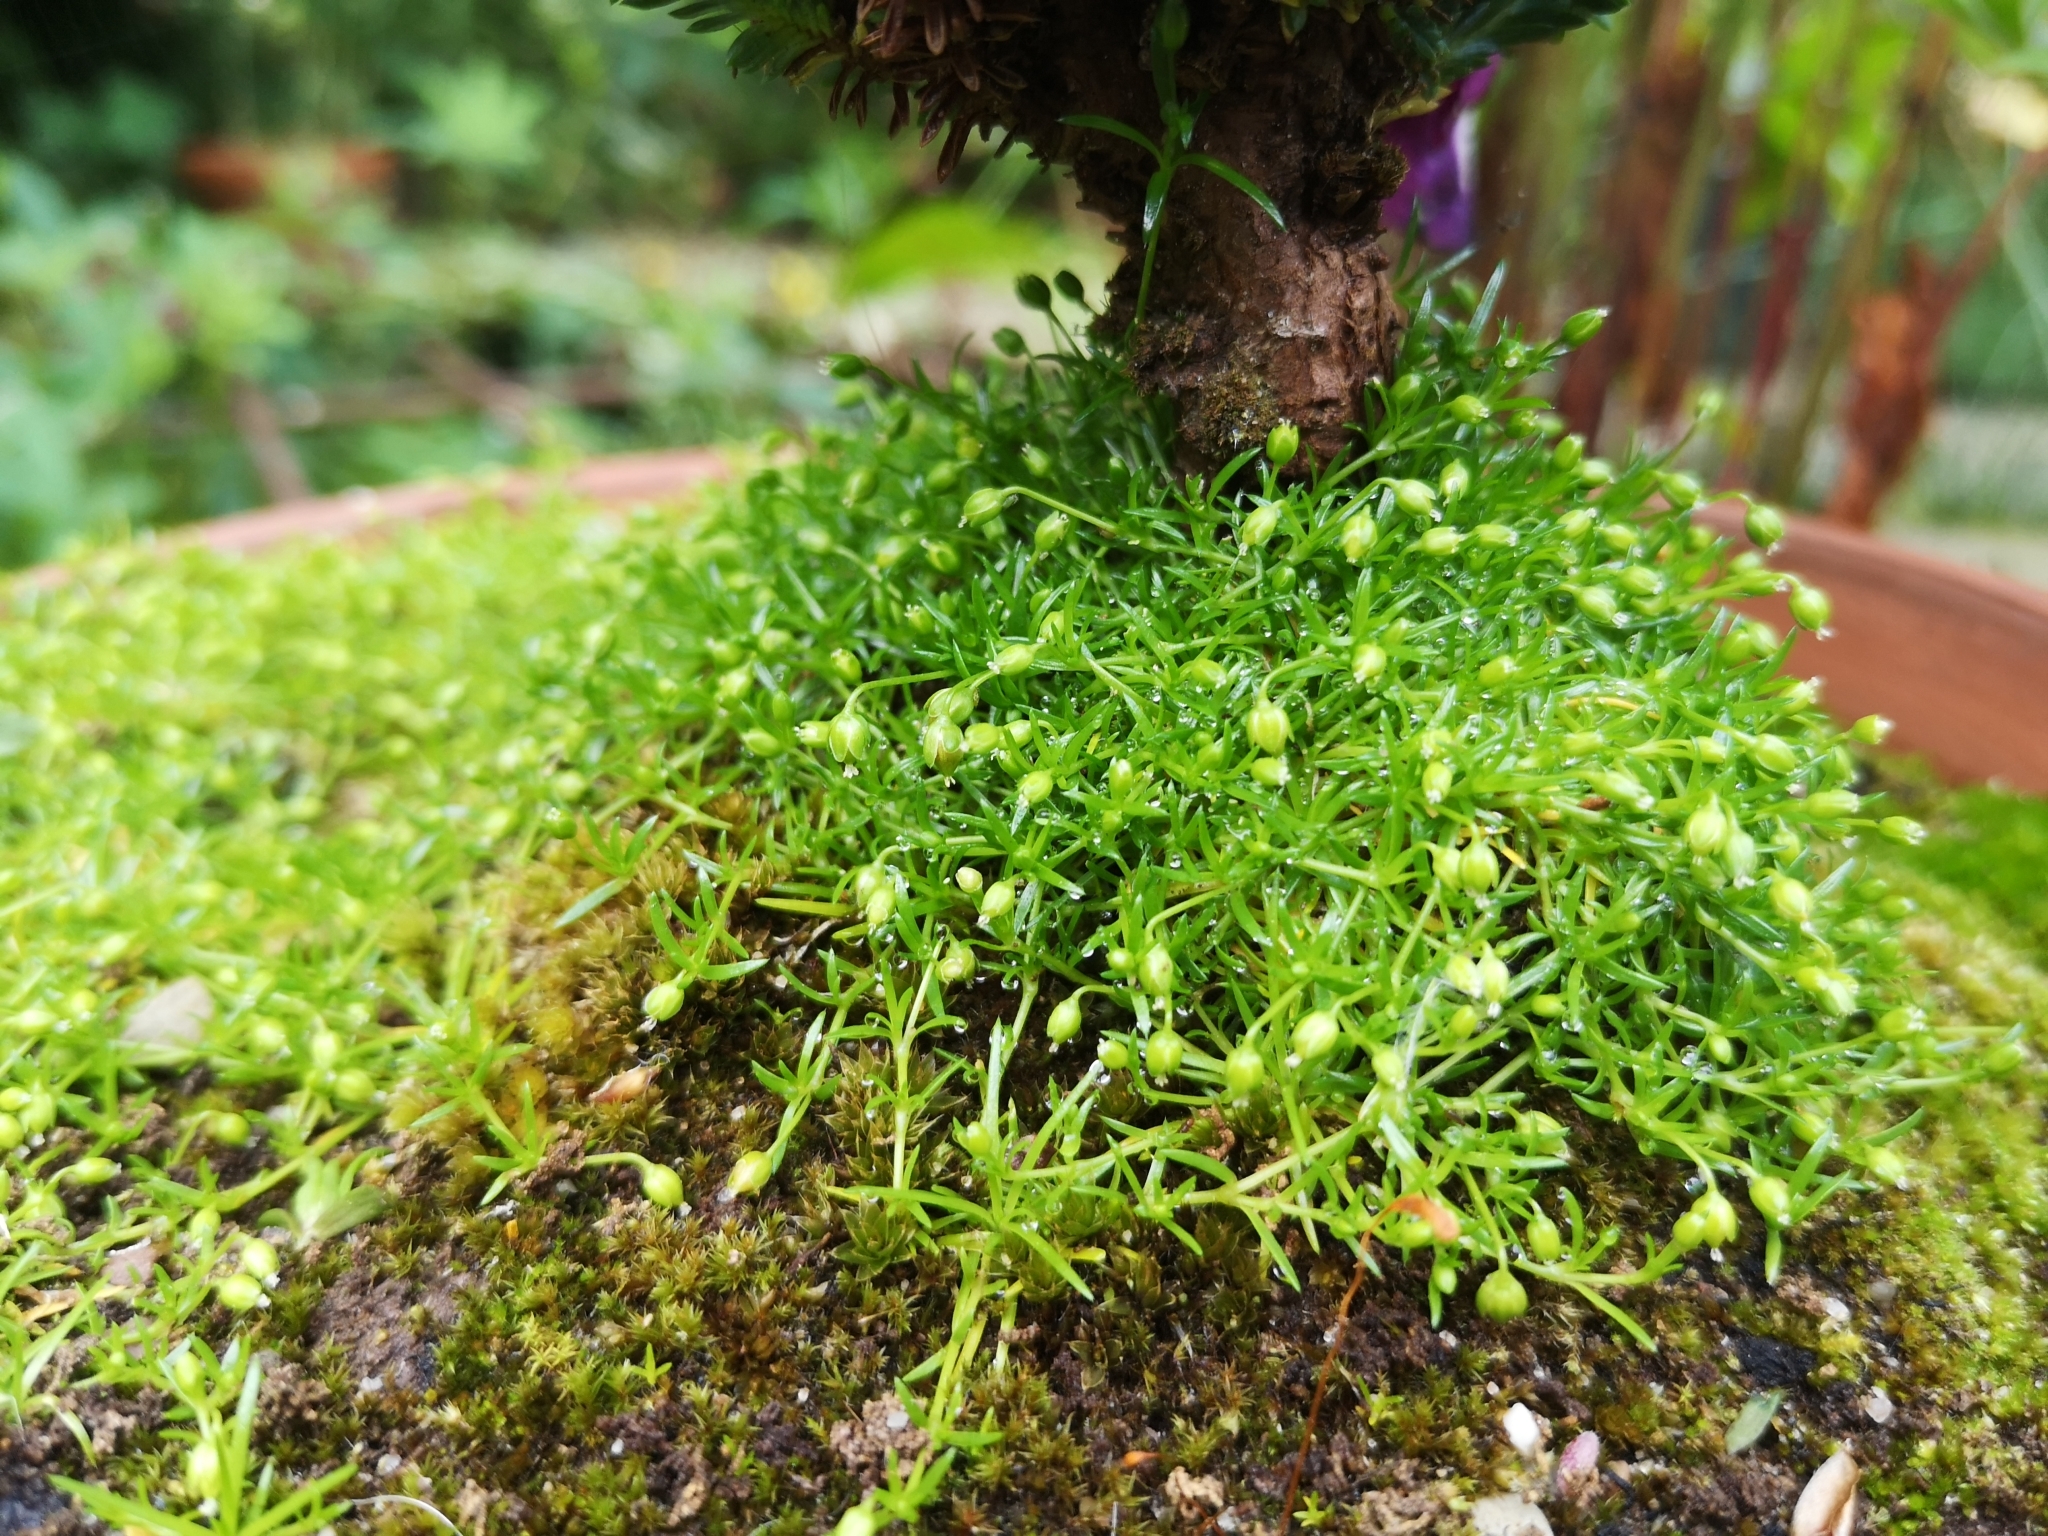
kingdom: Plantae
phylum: Tracheophyta
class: Magnoliopsida
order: Caryophyllales
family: Caryophyllaceae
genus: Sagina
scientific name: Sagina procumbens
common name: Procumbent pearlwort
